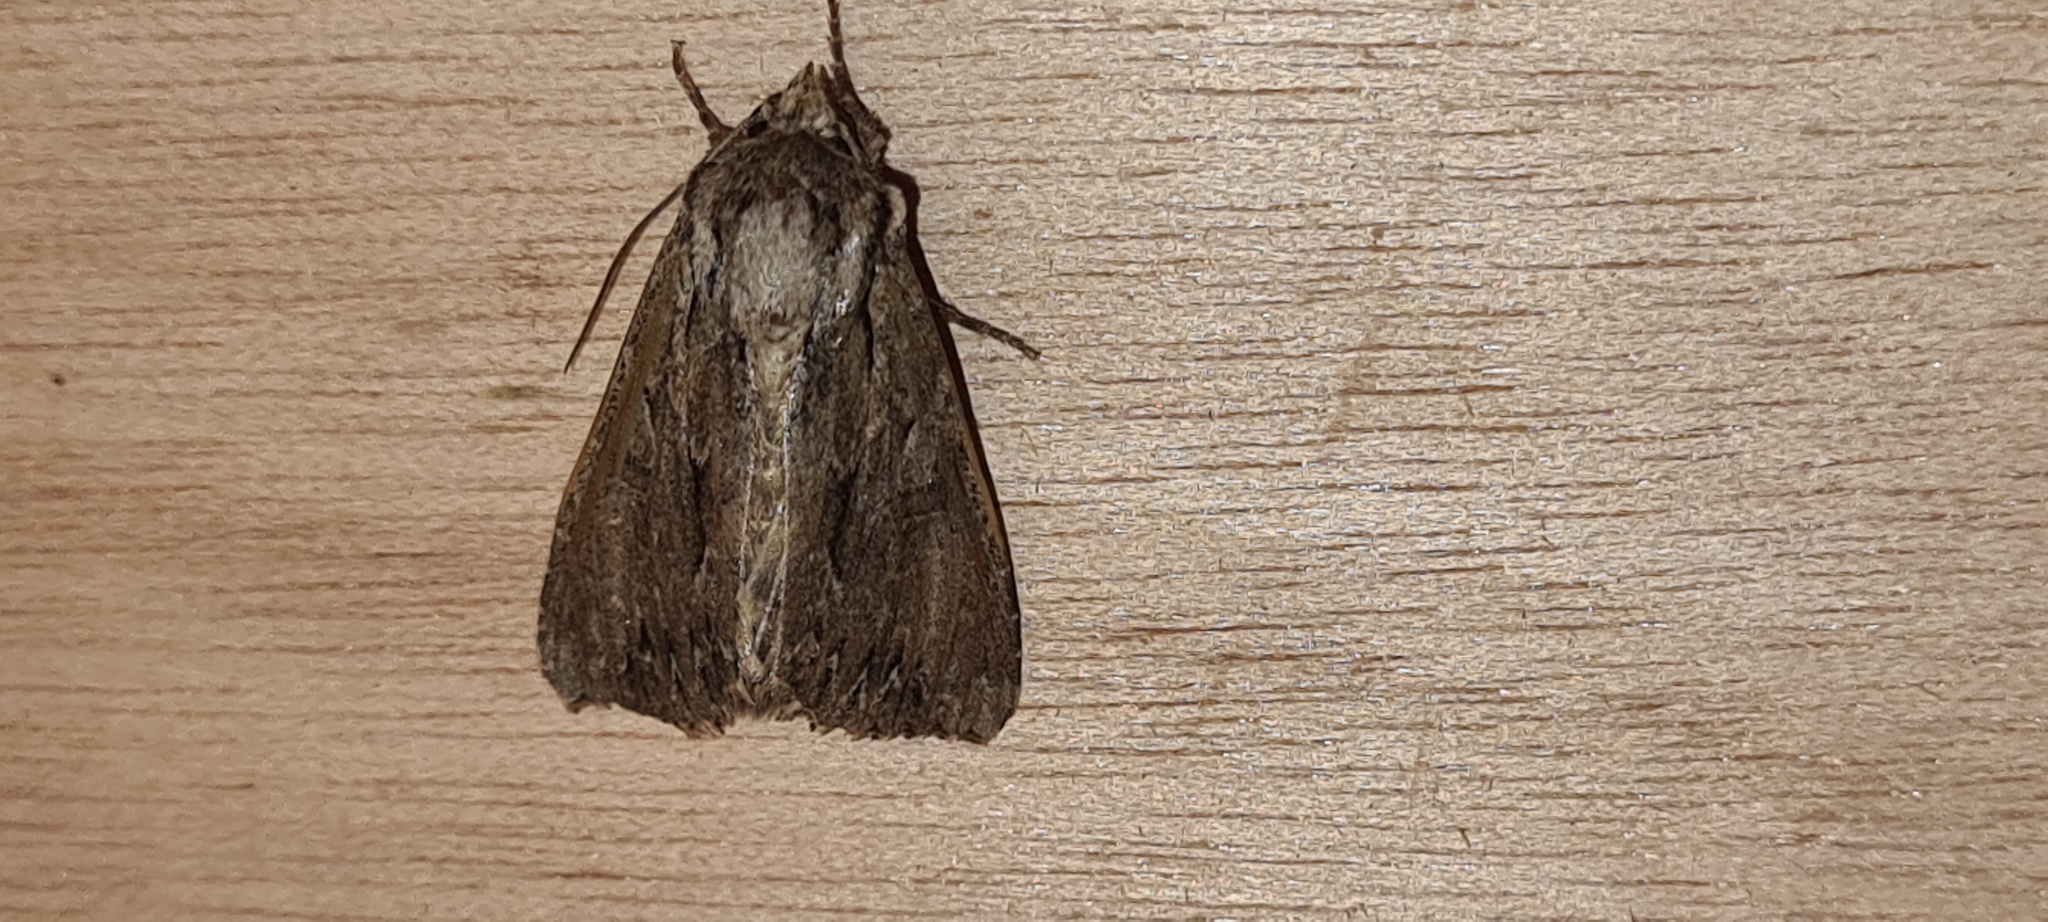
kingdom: Animalia
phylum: Arthropoda
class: Insecta
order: Lepidoptera
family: Noctuidae
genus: Apamea
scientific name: Apamea monoglypha
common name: Dark arches
